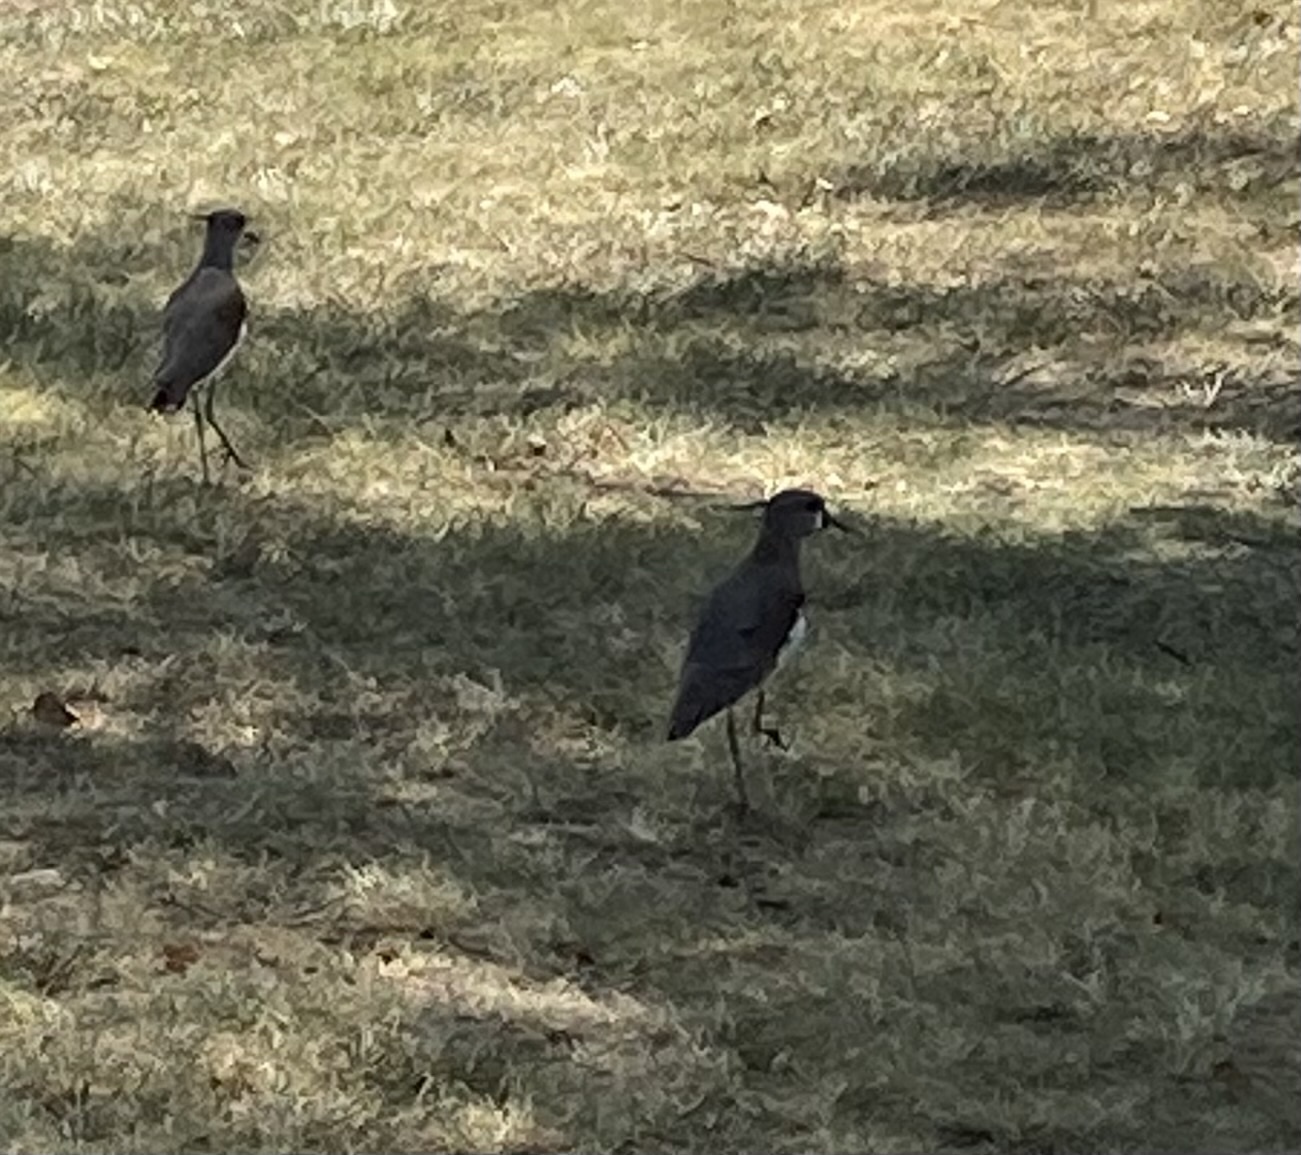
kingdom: Animalia
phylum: Chordata
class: Aves
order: Charadriiformes
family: Charadriidae
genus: Vanellus
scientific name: Vanellus chilensis
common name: Southern lapwing
